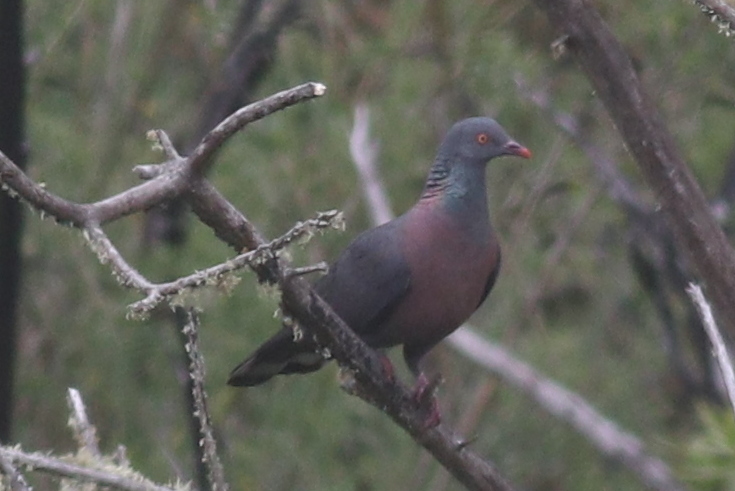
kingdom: Animalia
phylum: Chordata
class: Aves
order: Columbiformes
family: Columbidae
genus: Columba
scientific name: Columba bollii
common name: Bolle's pigeon
